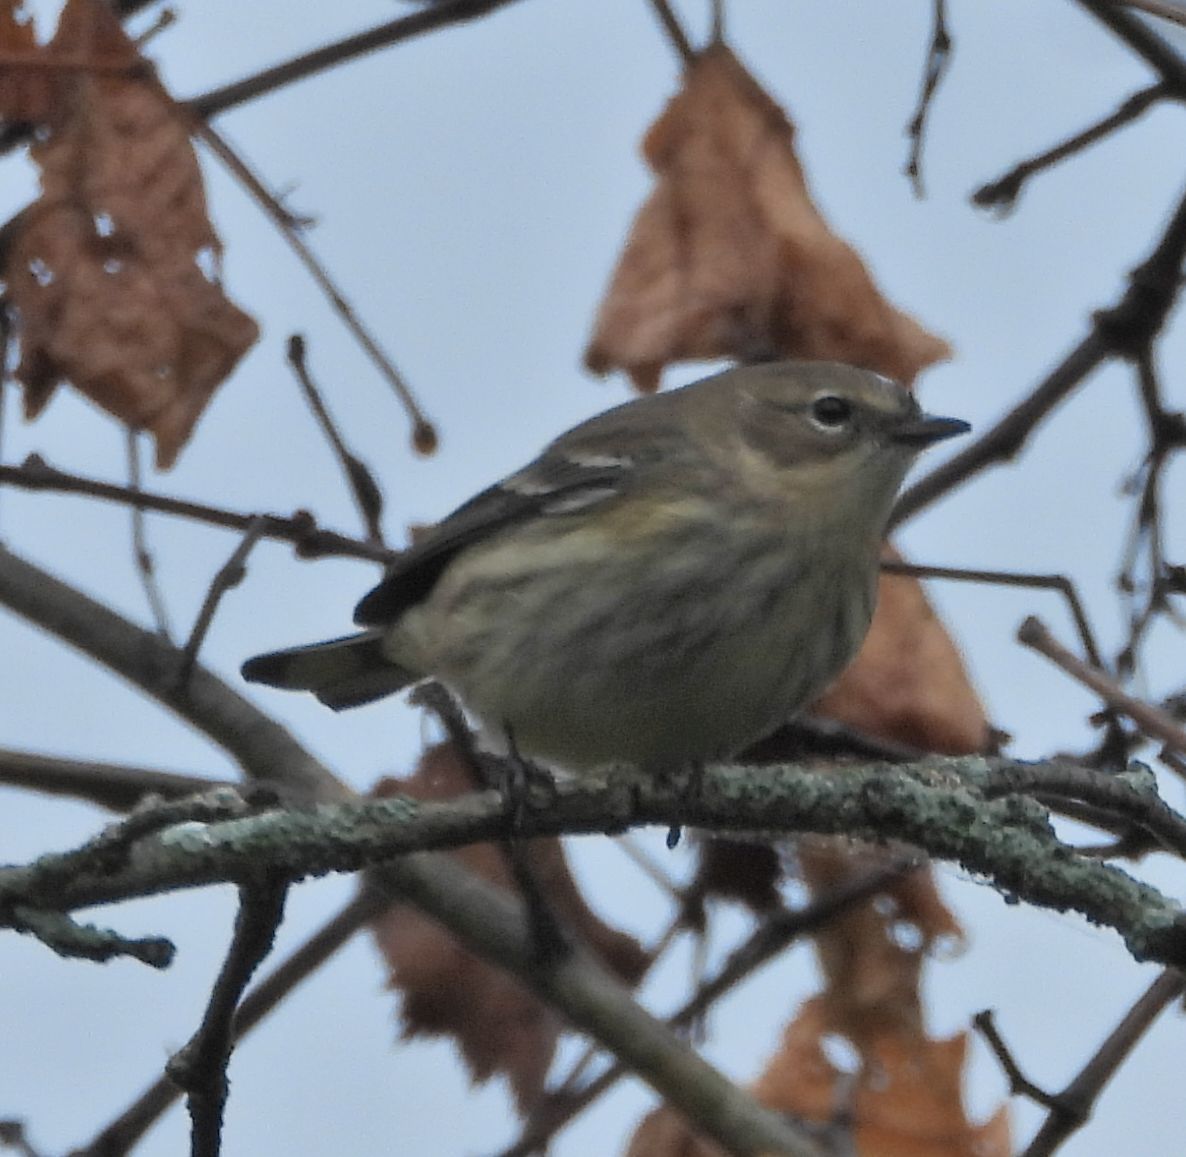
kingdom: Animalia
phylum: Chordata
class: Aves
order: Passeriformes
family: Parulidae
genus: Setophaga
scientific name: Setophaga coronata
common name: Myrtle warbler
